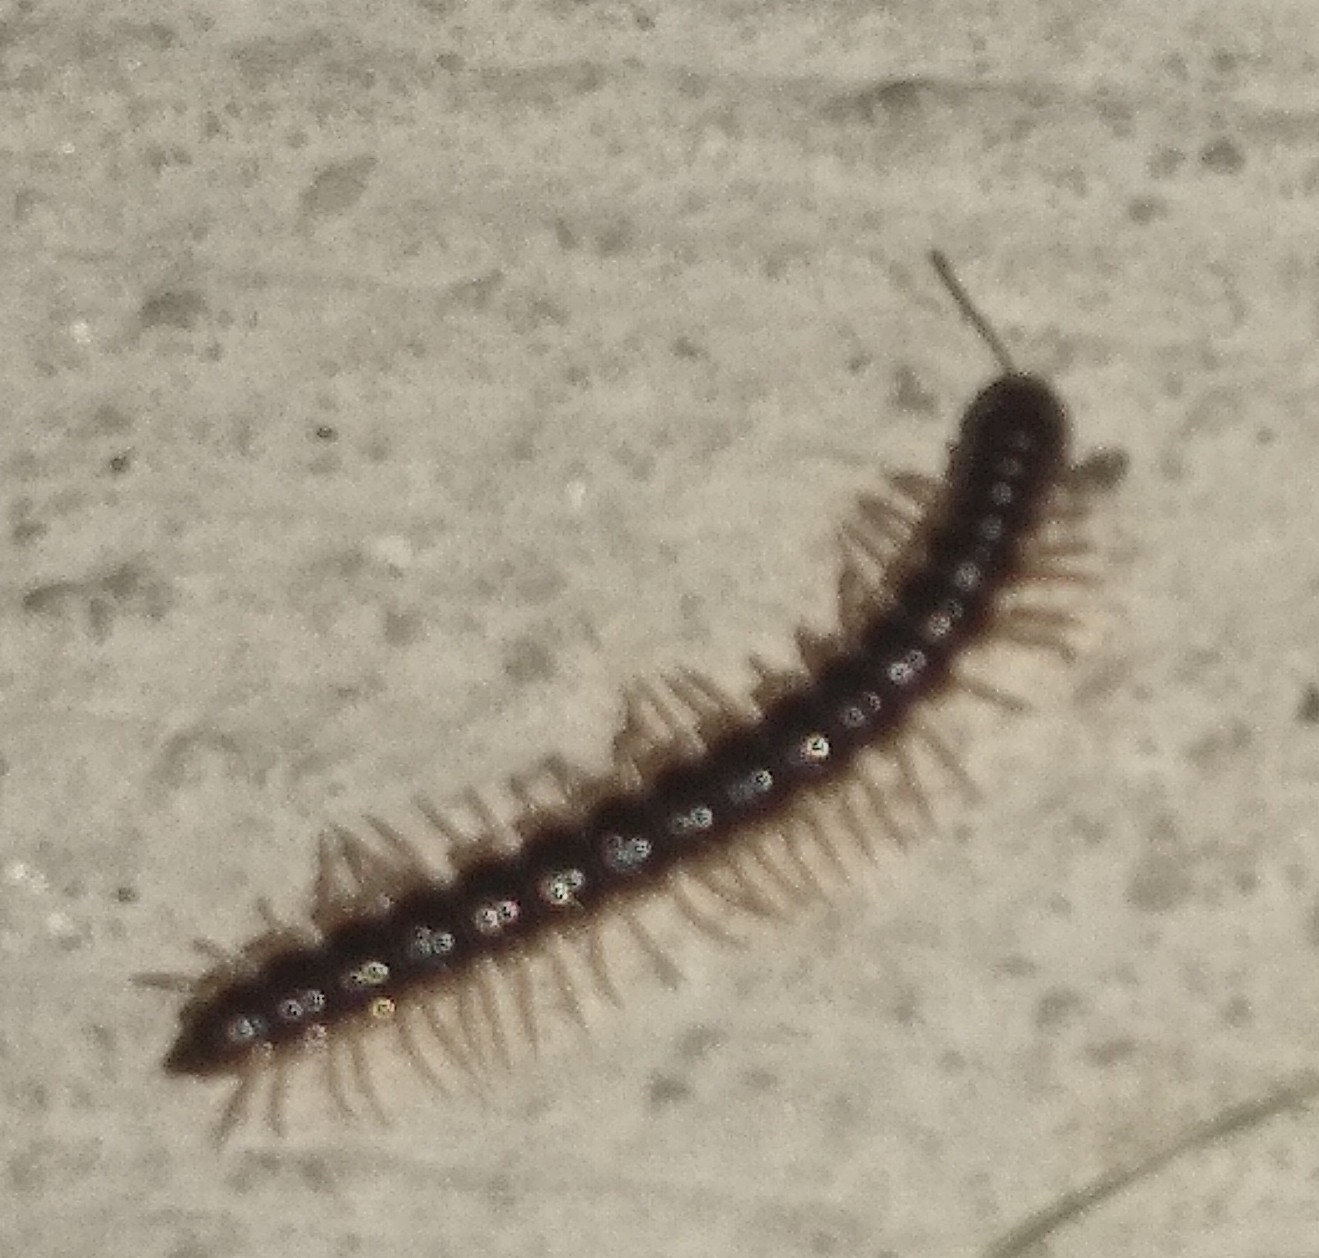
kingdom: Animalia
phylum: Arthropoda
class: Diplopoda
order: Polydesmida
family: Paradoxosomatidae
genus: Oxidus
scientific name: Oxidus gracilis
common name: Greenhouse millipede
